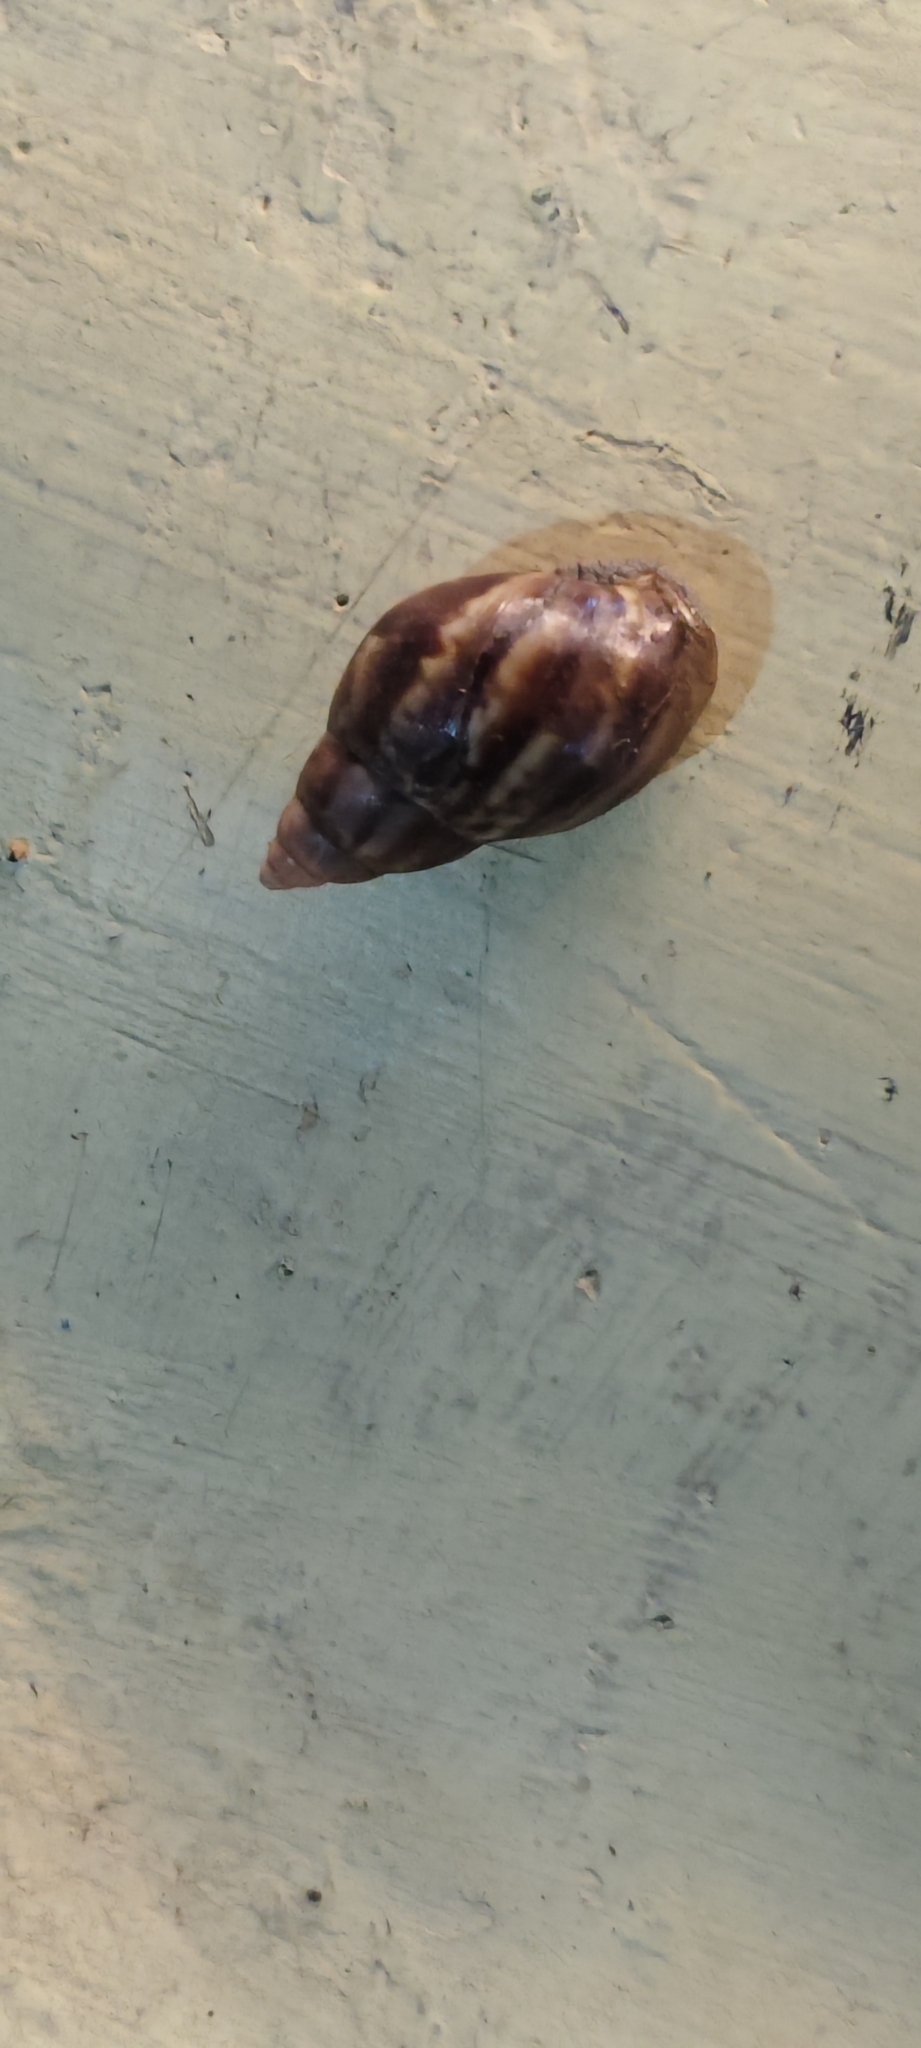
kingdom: Animalia
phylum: Mollusca
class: Gastropoda
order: Stylommatophora
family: Achatinidae
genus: Lissachatina
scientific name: Lissachatina fulica
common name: Giant african snail
